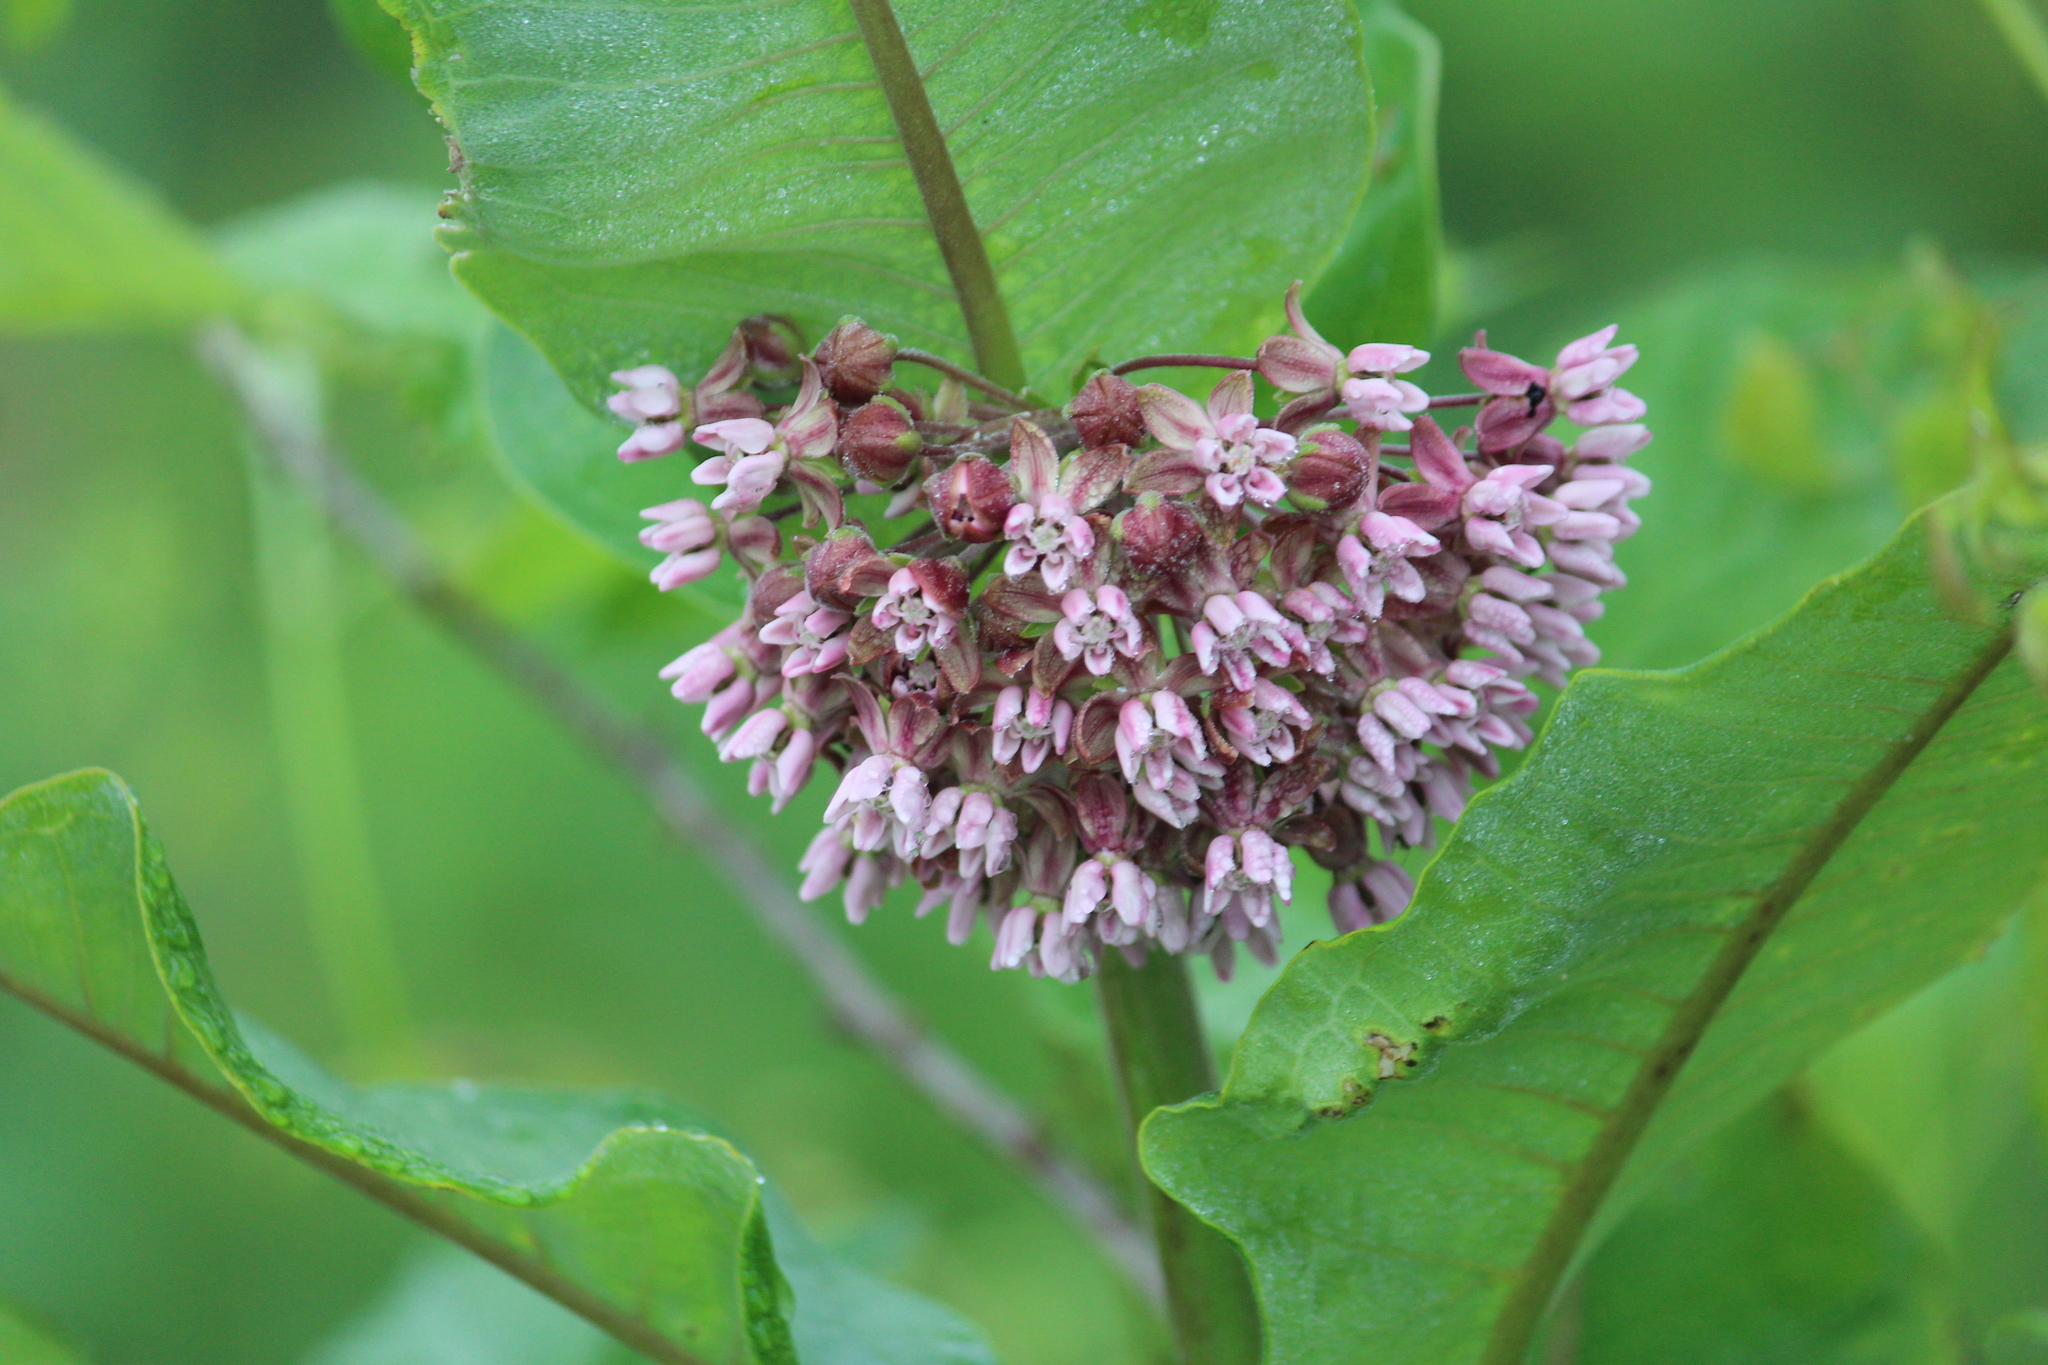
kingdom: Plantae
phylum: Tracheophyta
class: Magnoliopsida
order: Gentianales
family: Apocynaceae
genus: Asclepias
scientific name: Asclepias syriaca
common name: Common milkweed
